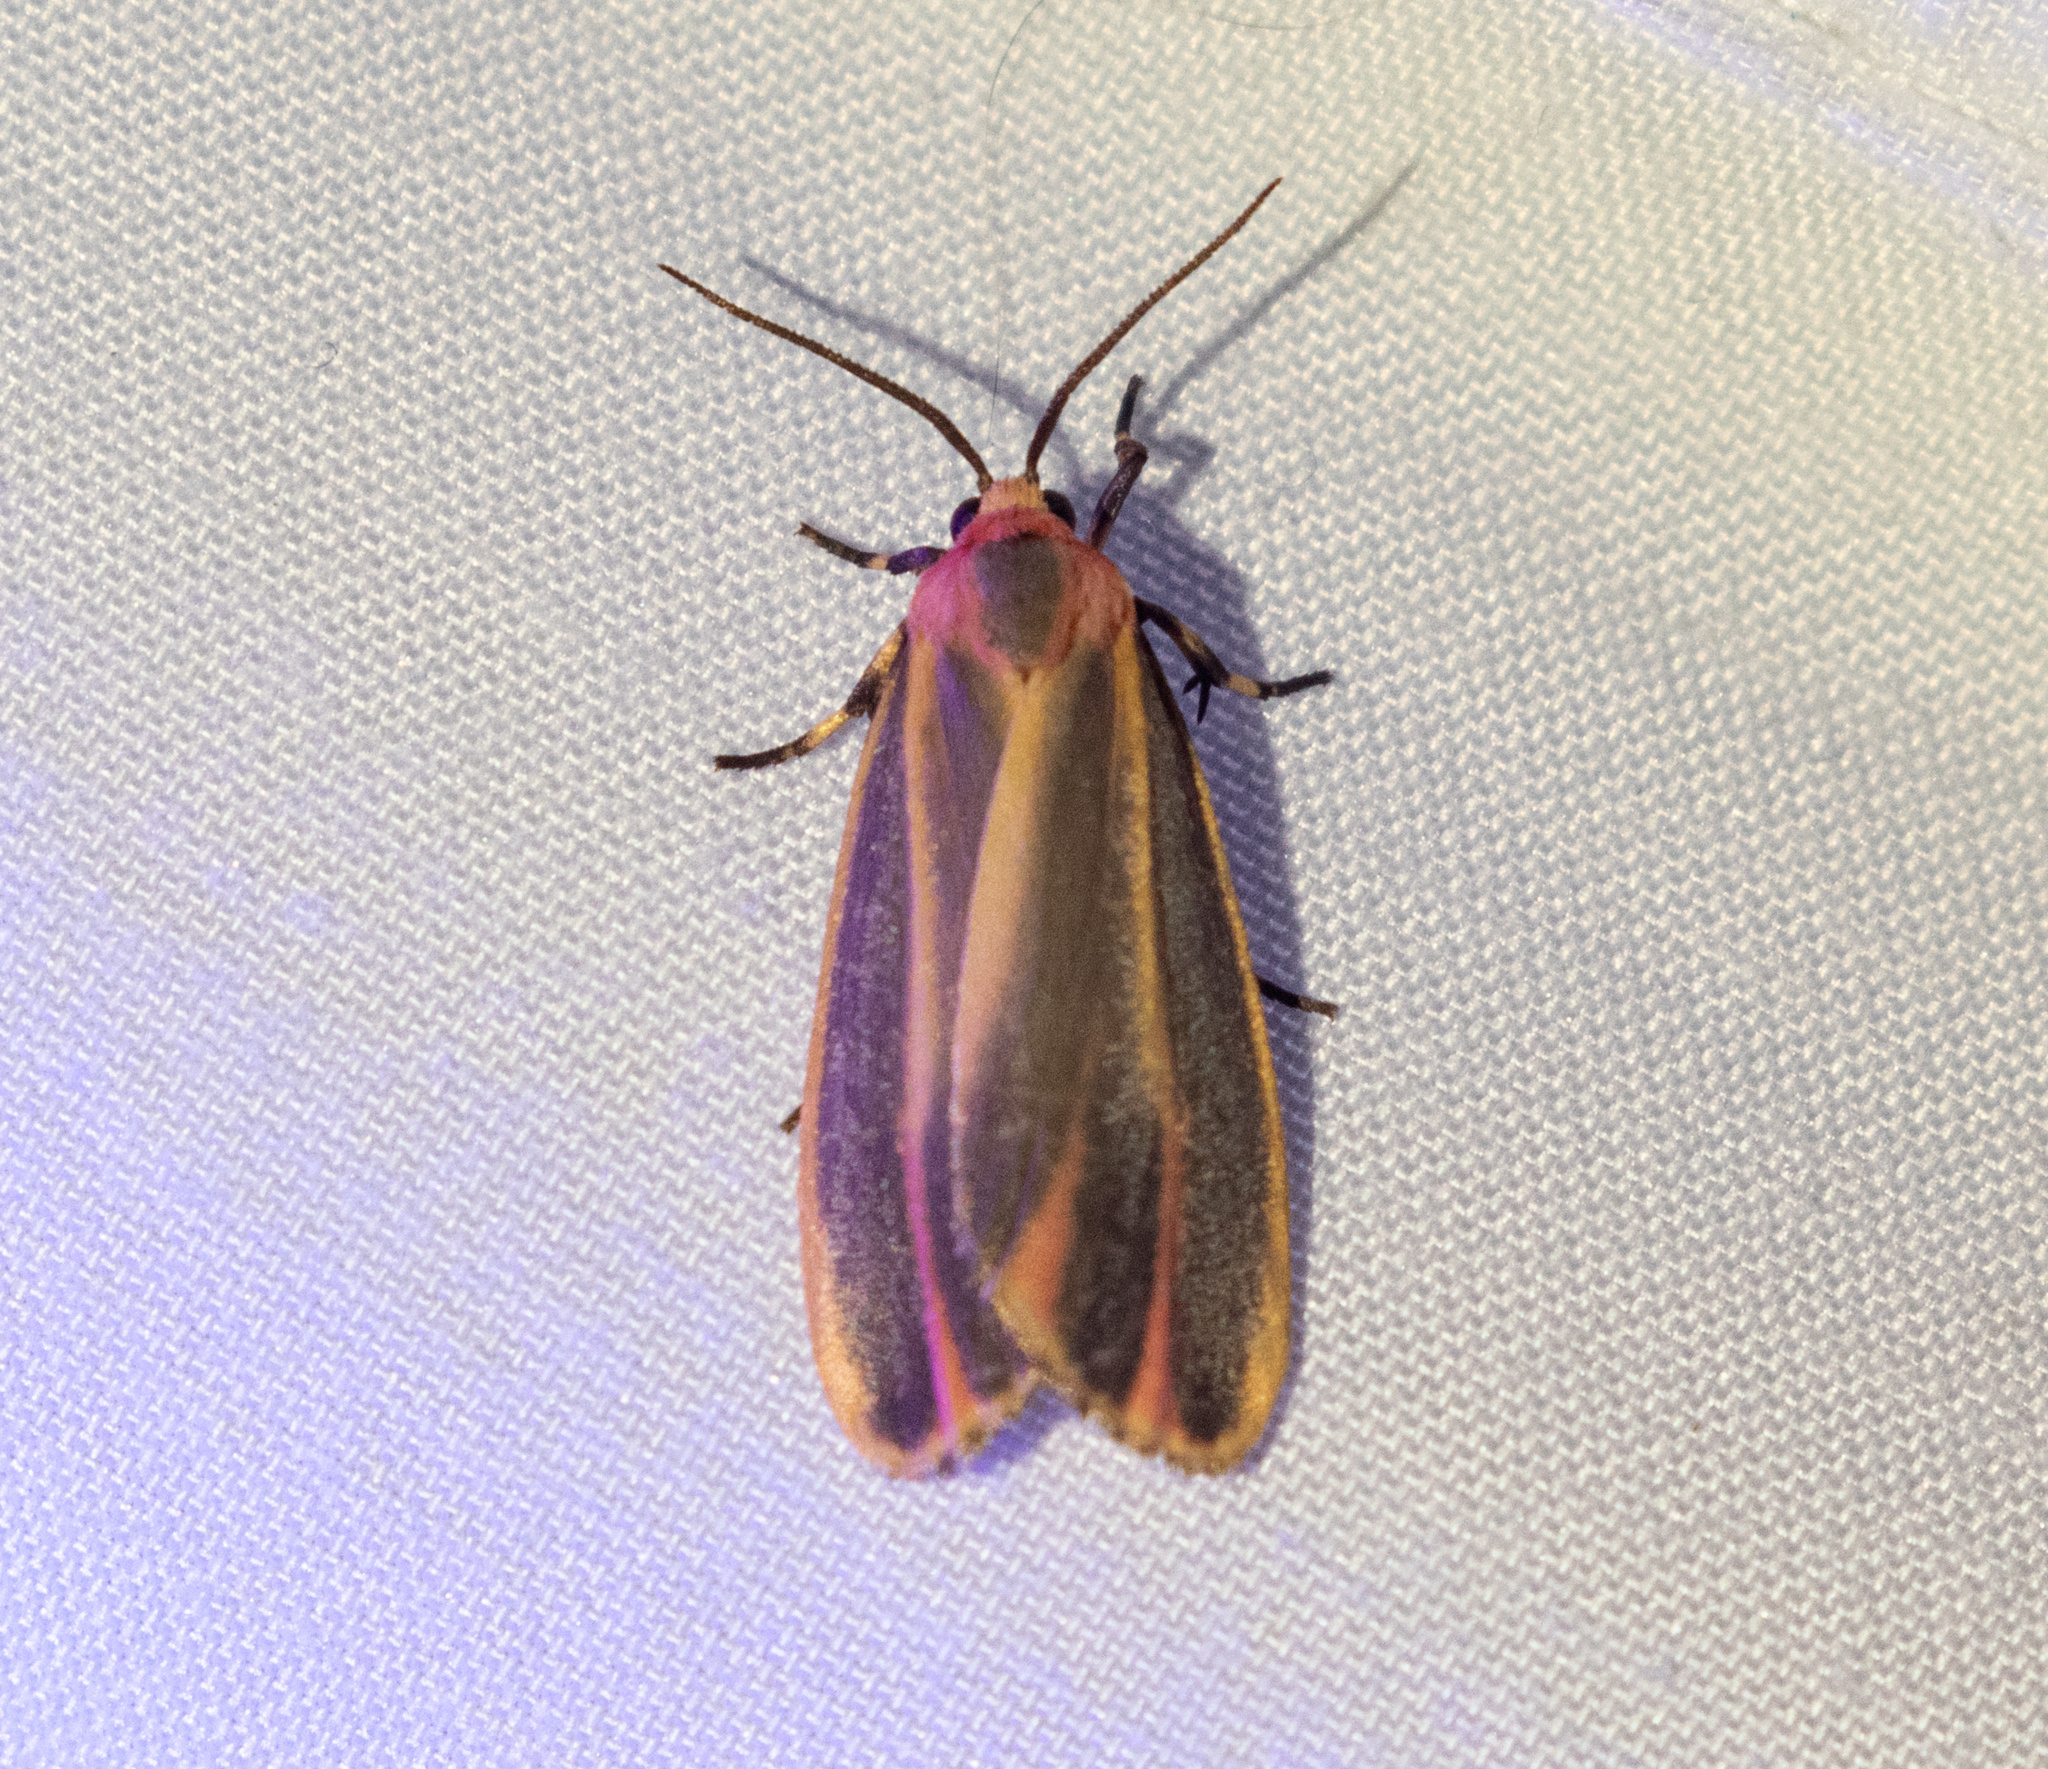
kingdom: Animalia
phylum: Arthropoda
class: Insecta
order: Lepidoptera
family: Erebidae
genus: Hypoprepia
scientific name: Hypoprepia fucosa
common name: Painted lichen moth
